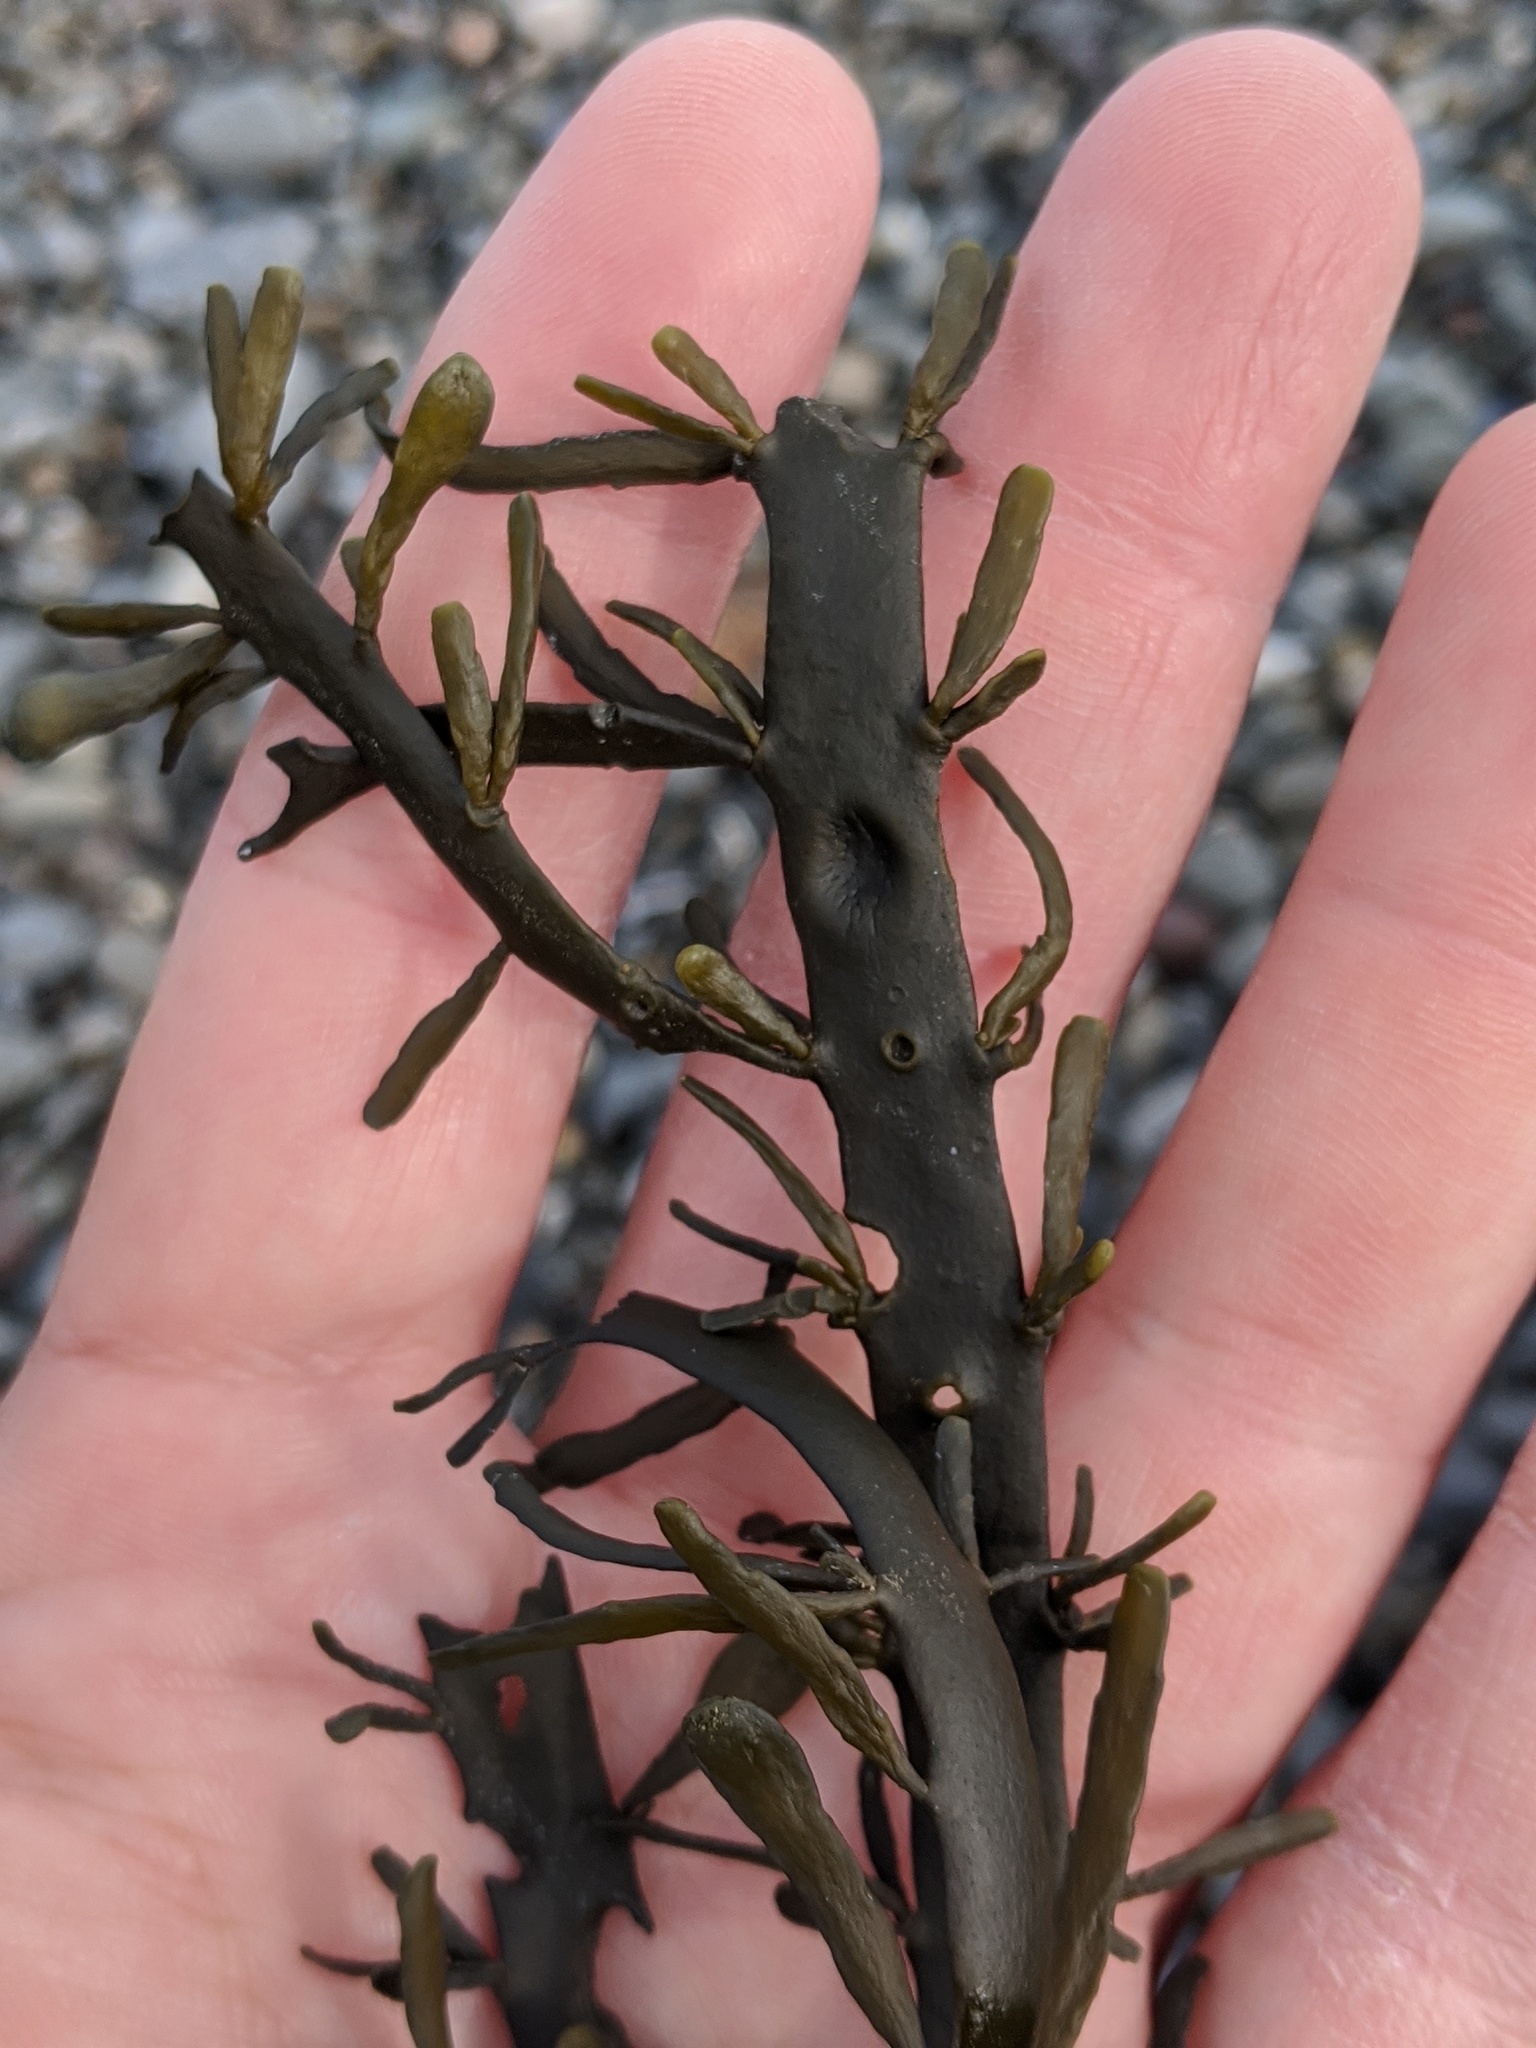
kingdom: Chromista
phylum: Ochrophyta
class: Phaeophyceae
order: Fucales
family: Fucaceae
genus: Ascophyllum
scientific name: Ascophyllum nodosum
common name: Knotted wrack
